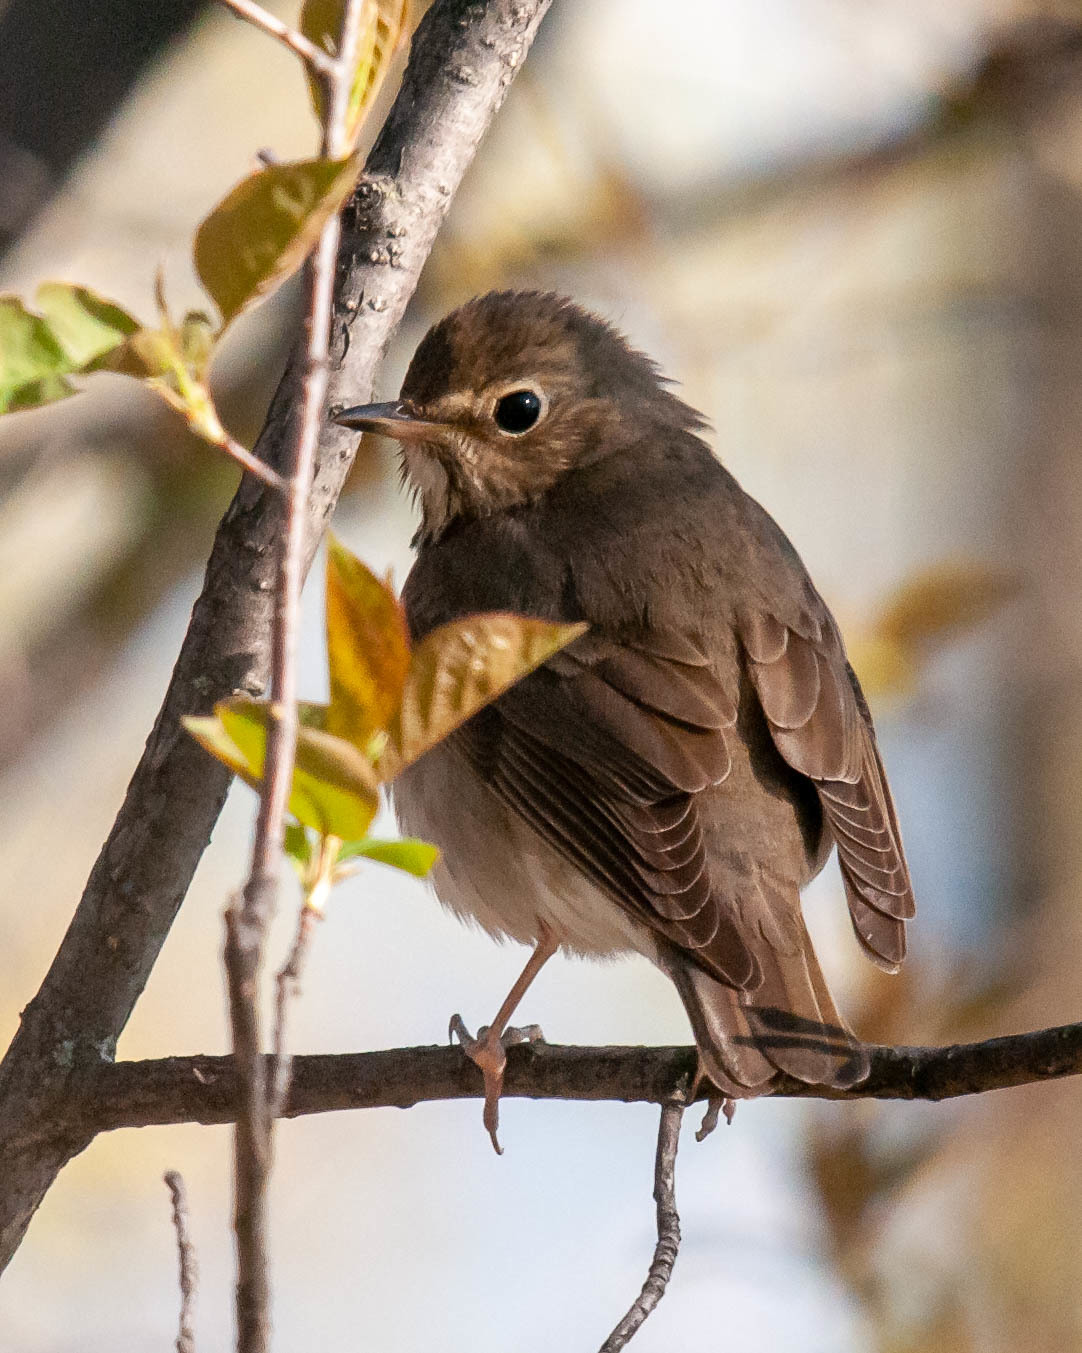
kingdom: Animalia
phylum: Chordata
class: Aves
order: Passeriformes
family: Turdidae
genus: Catharus
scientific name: Catharus ustulatus
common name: Swainson's thrush
